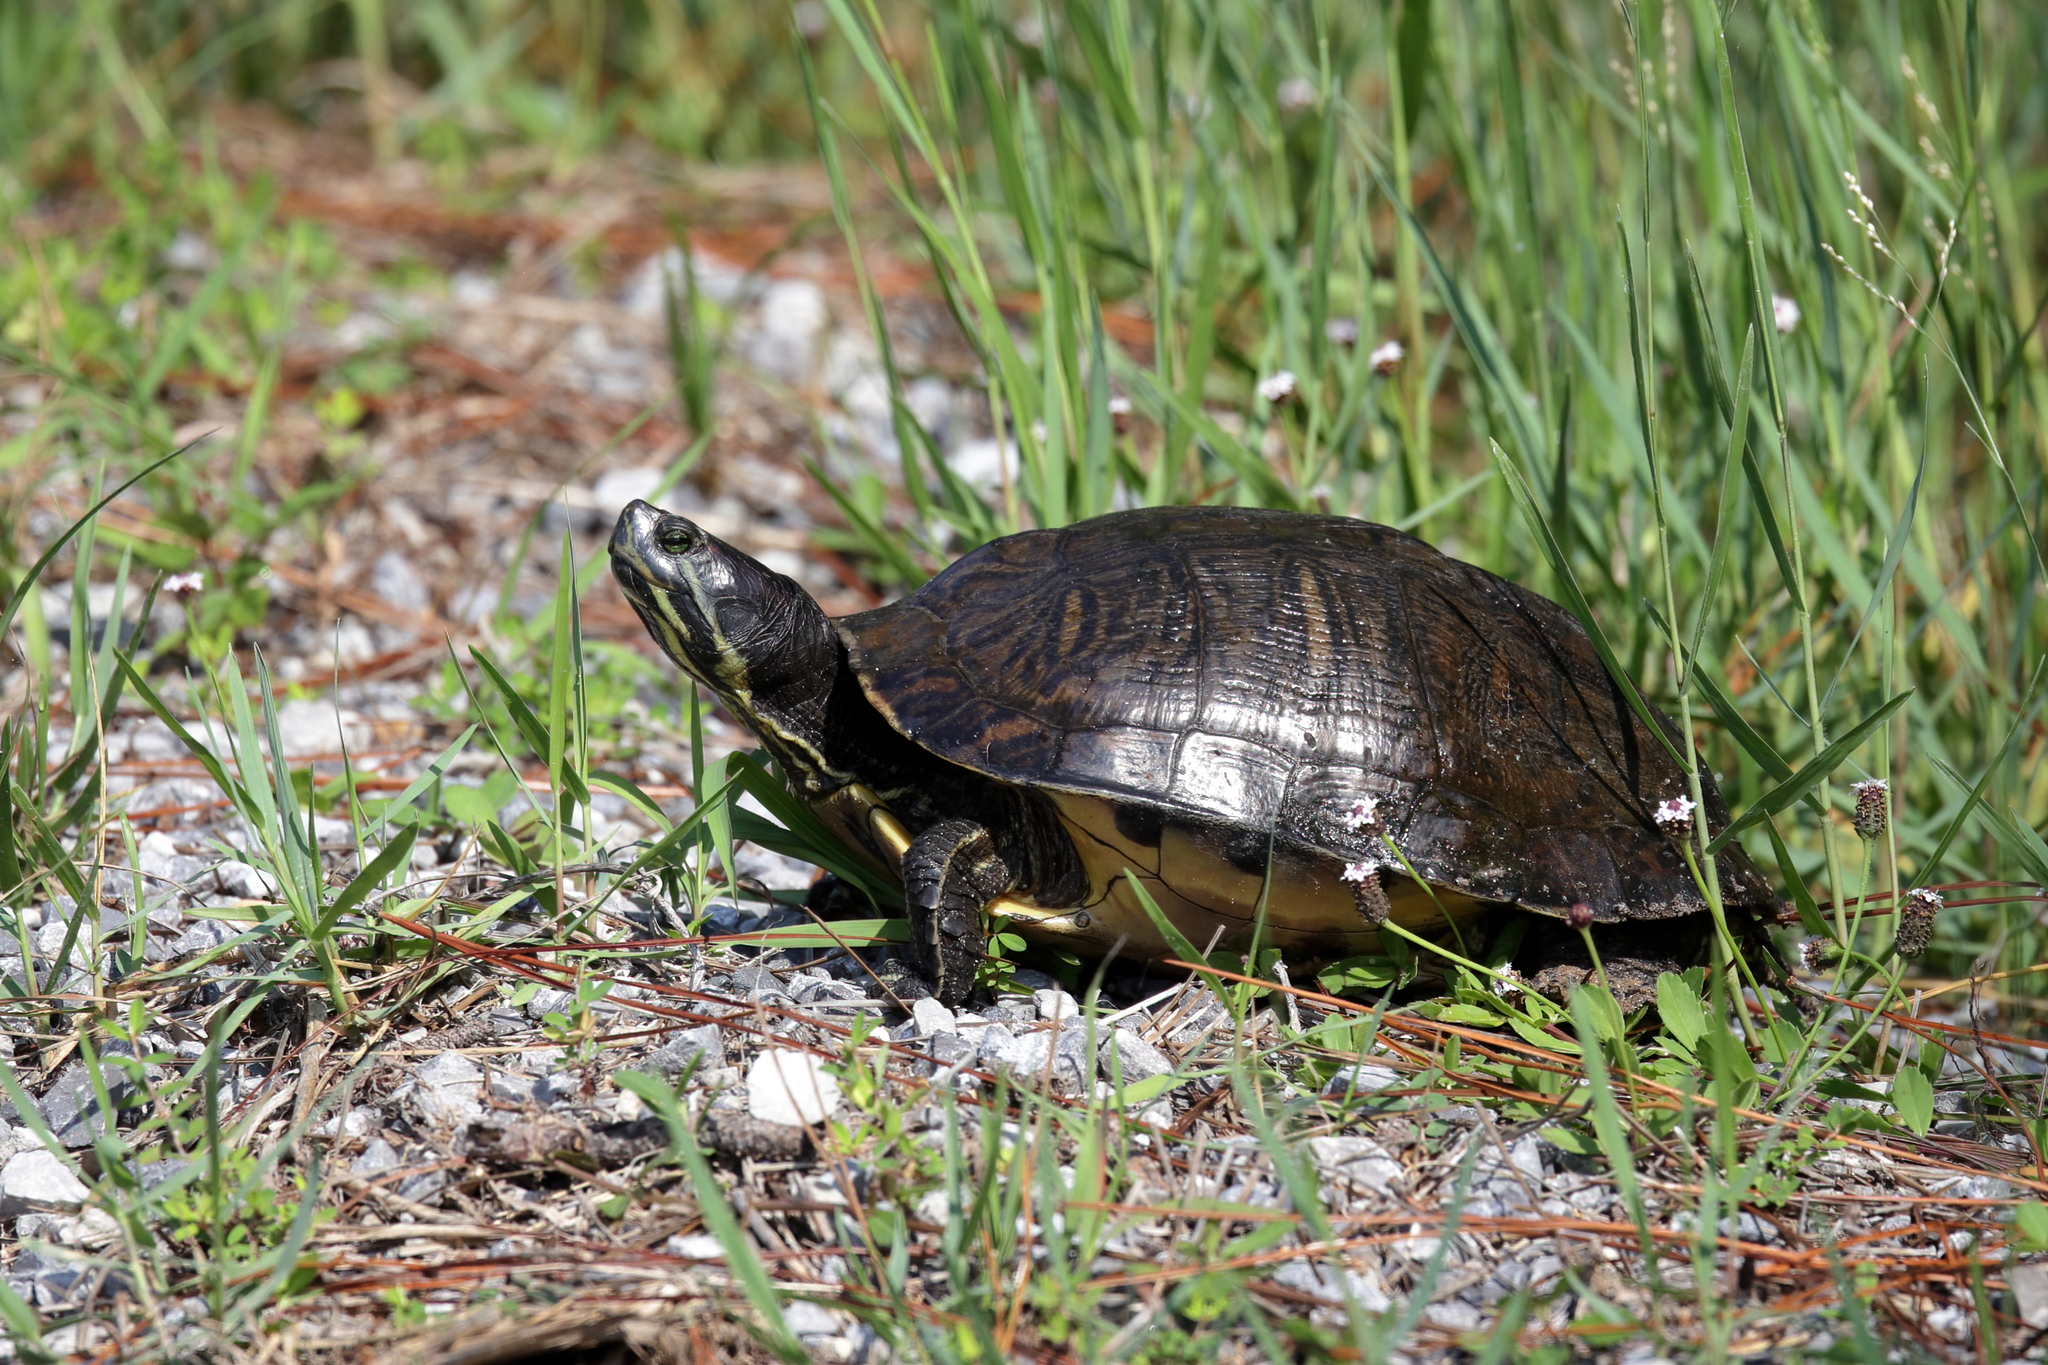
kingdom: Animalia
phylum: Chordata
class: Testudines
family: Emydidae
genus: Trachemys
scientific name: Trachemys scripta
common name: Slider
